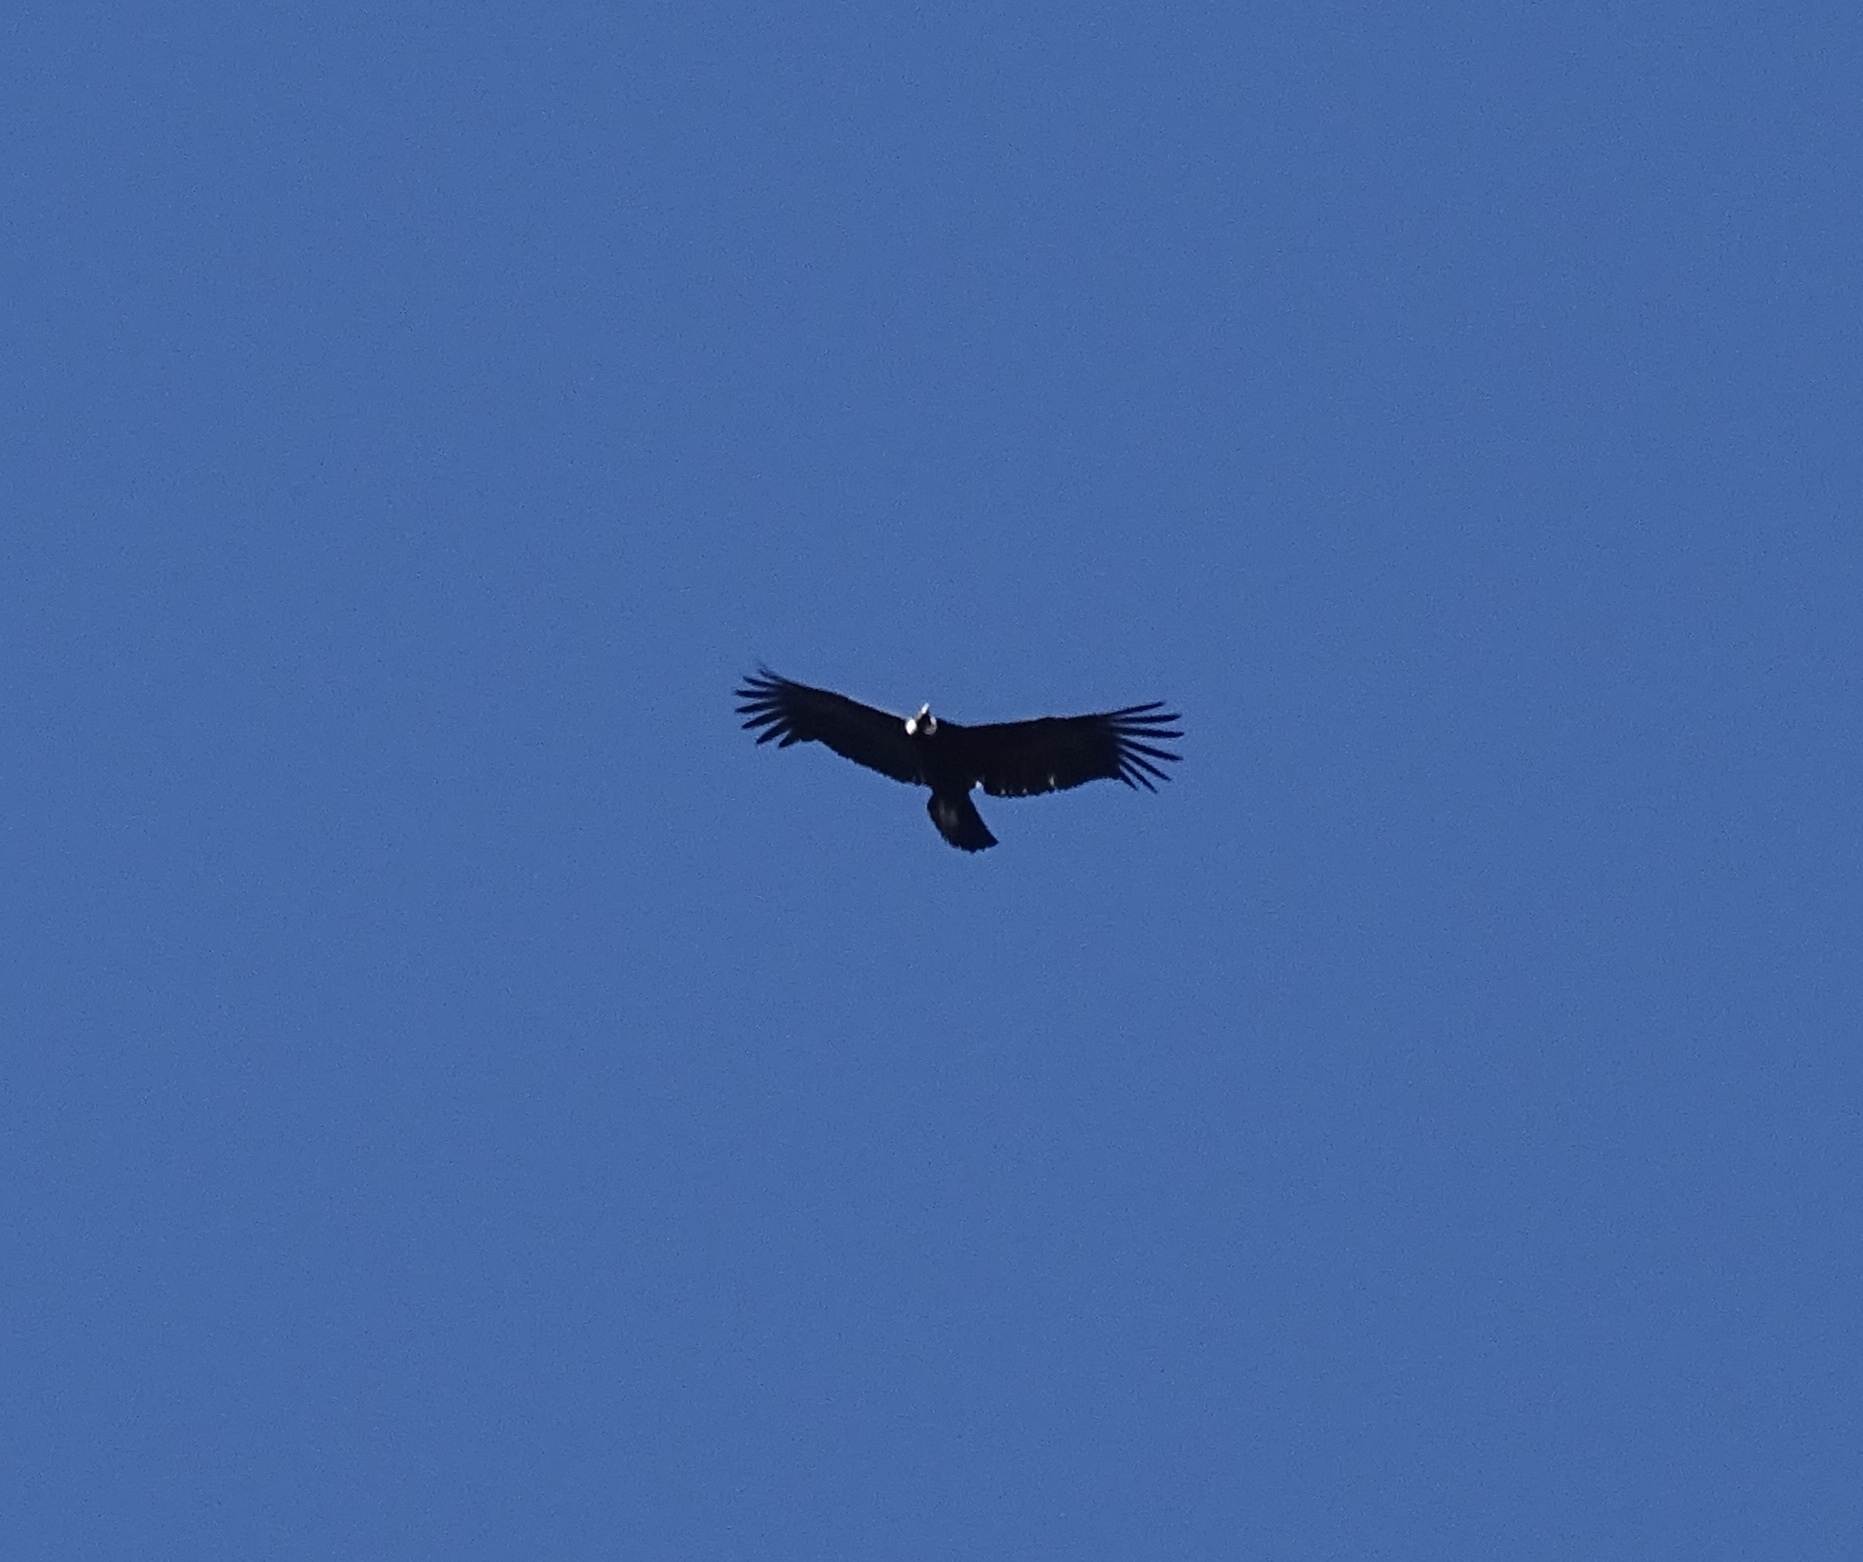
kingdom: Animalia
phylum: Chordata
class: Aves
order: Accipitriformes
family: Cathartidae
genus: Vultur
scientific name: Vultur gryphus
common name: Andean condor
